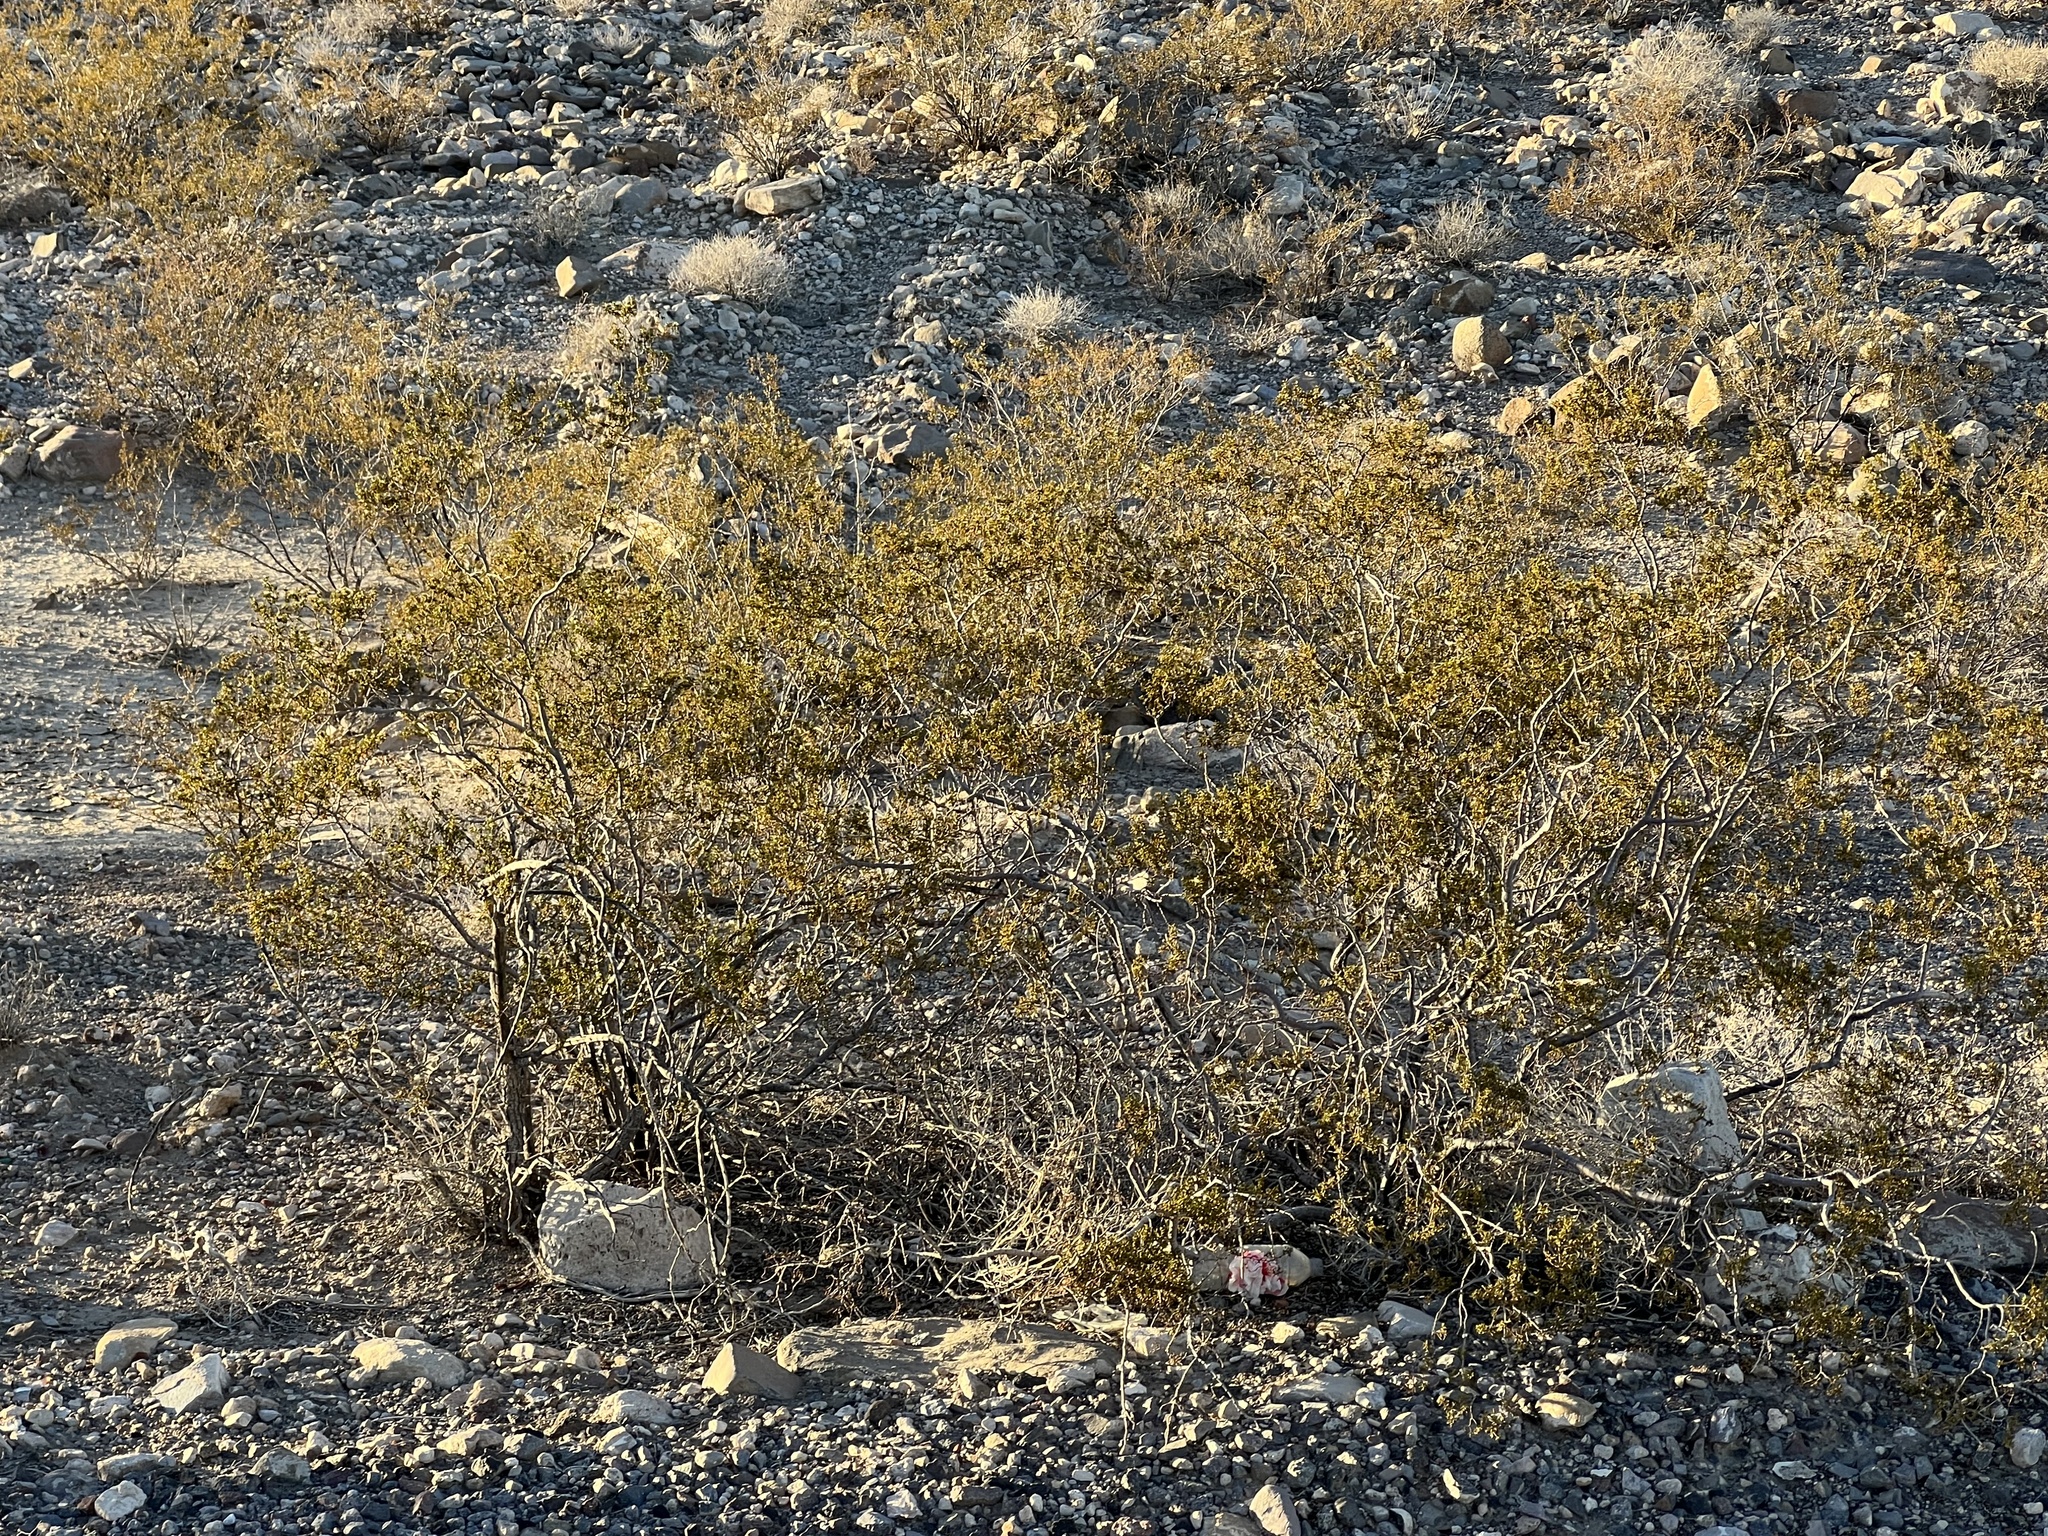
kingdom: Plantae
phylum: Tracheophyta
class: Magnoliopsida
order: Zygophyllales
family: Zygophyllaceae
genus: Larrea
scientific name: Larrea tridentata
